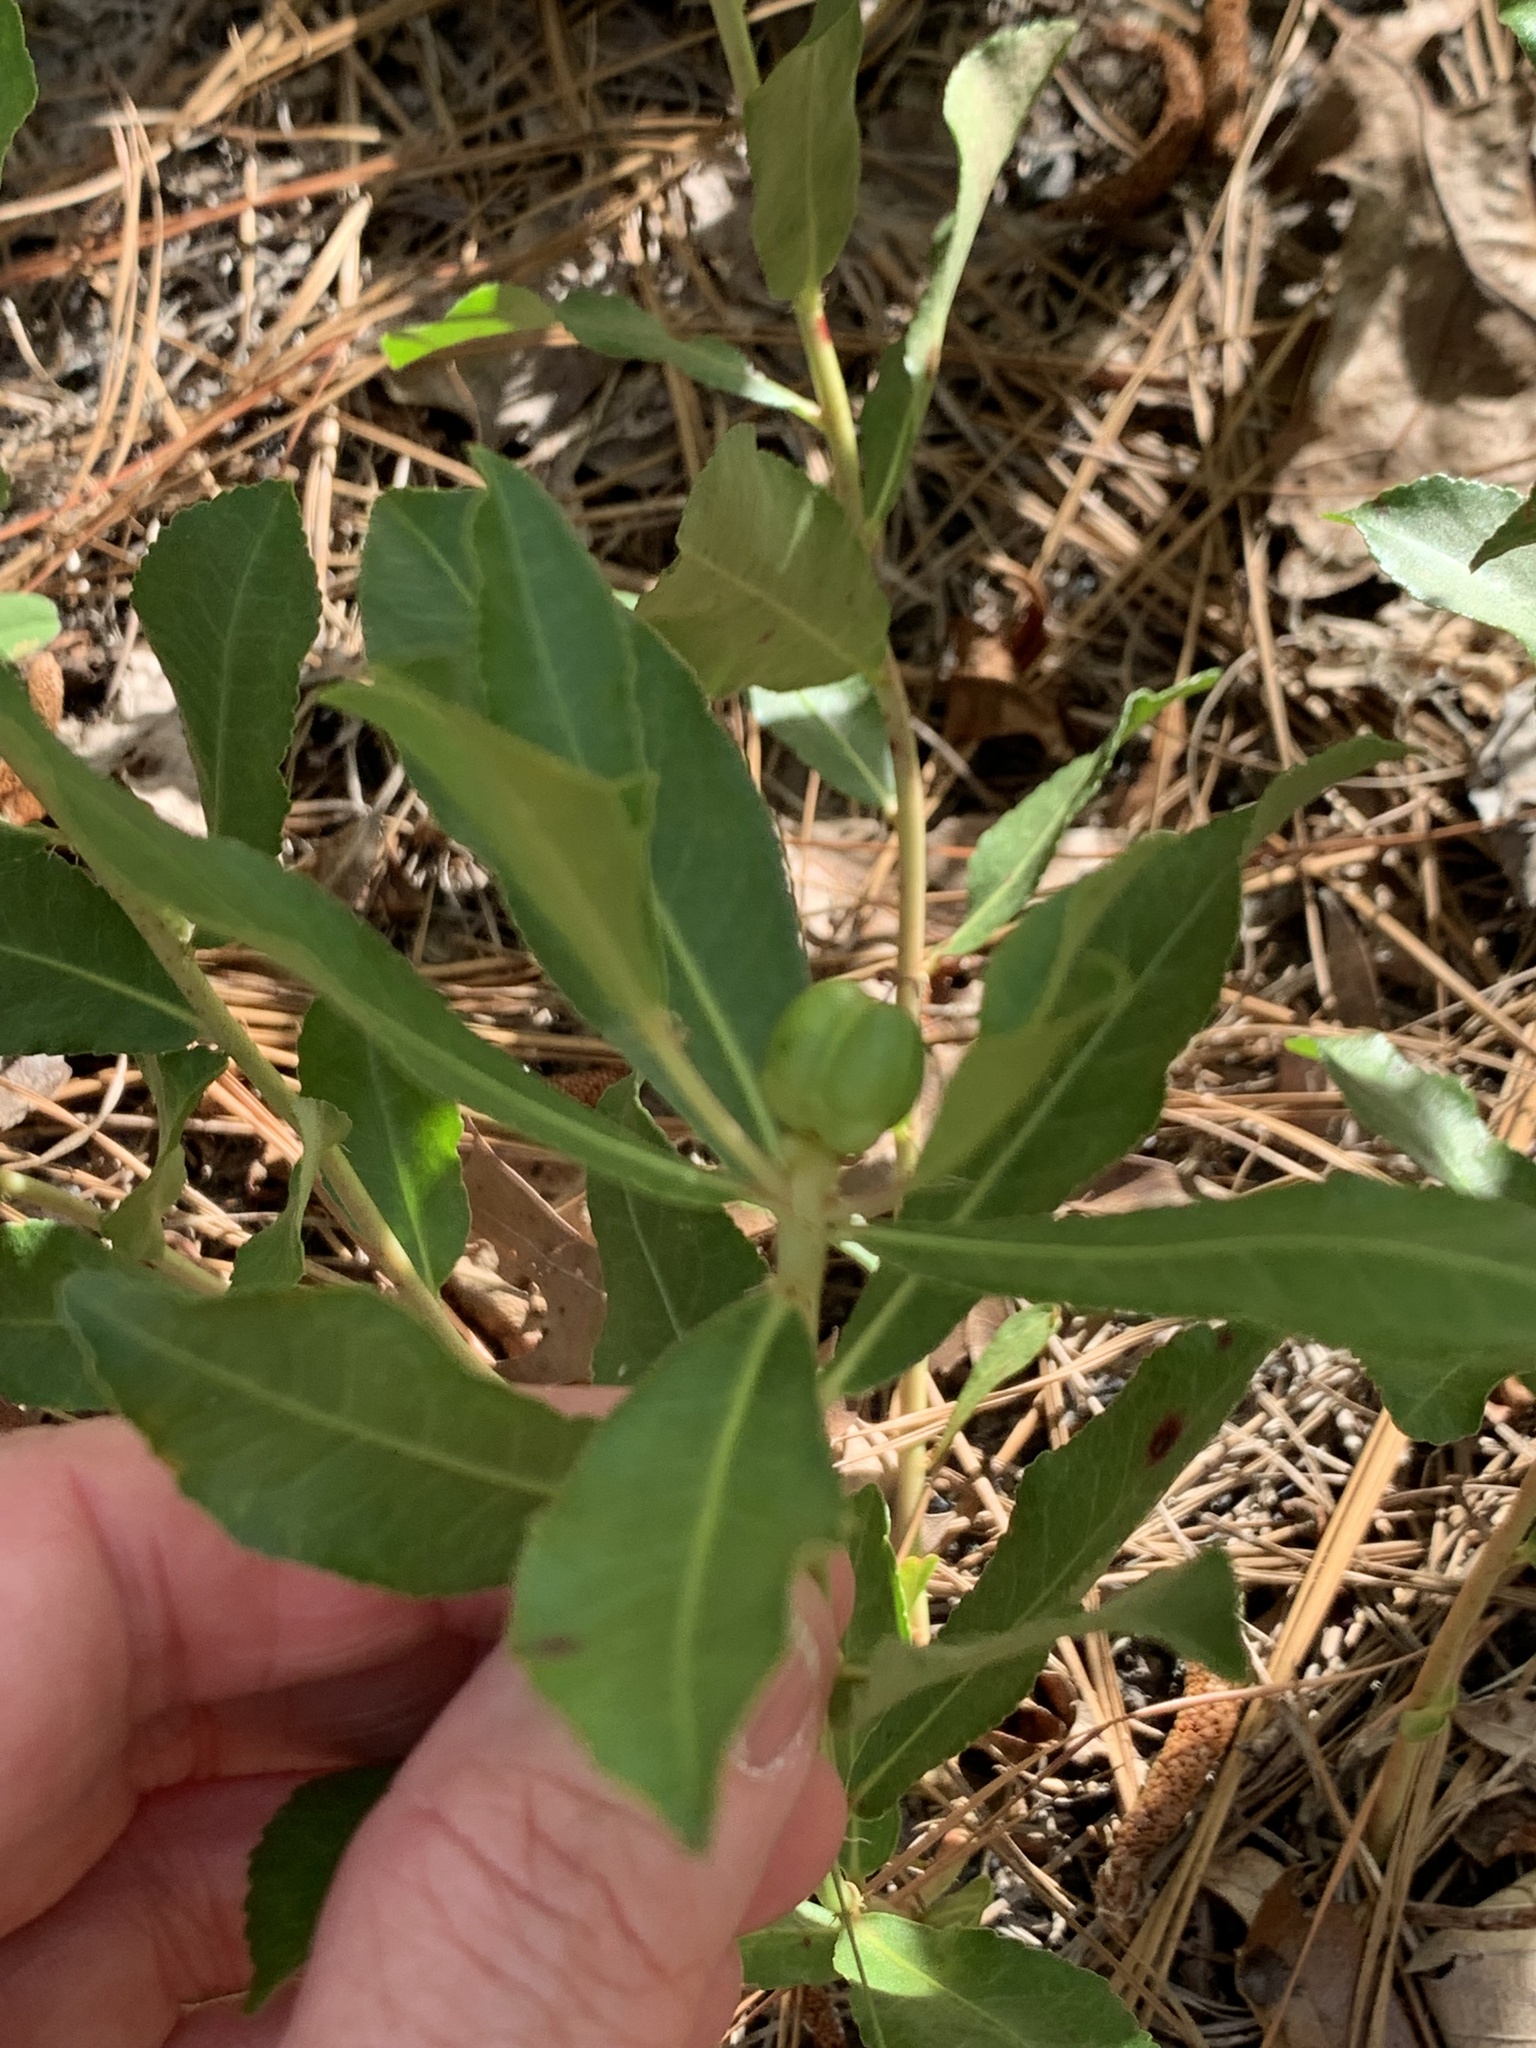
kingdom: Plantae
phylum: Tracheophyta
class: Magnoliopsida
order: Malpighiales
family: Euphorbiaceae
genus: Stillingia
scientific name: Stillingia sylvatica
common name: Queen's-delight
